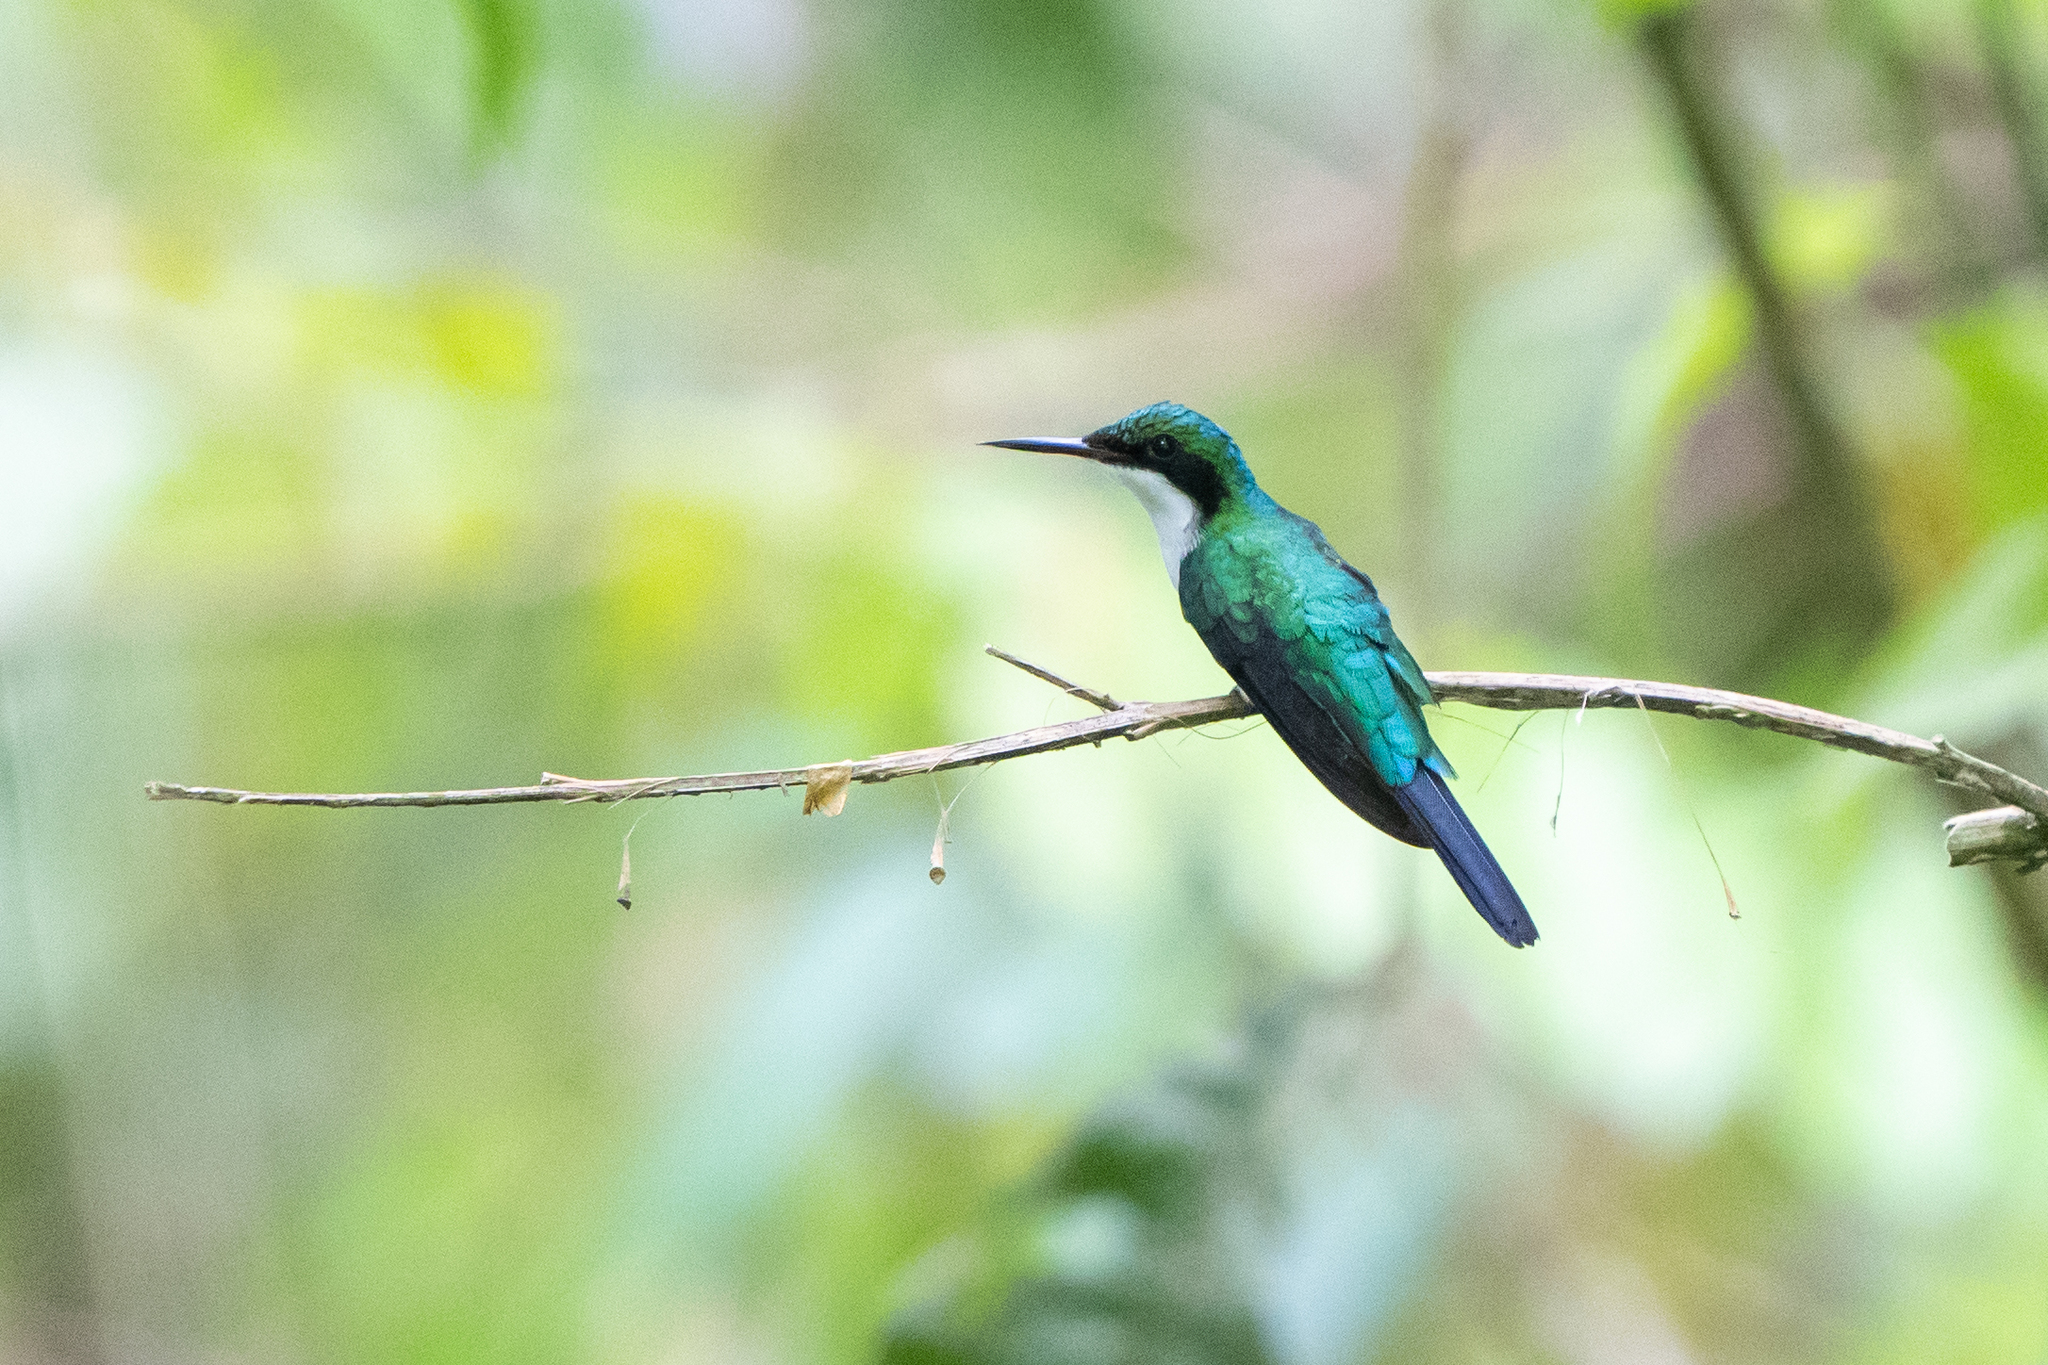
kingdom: Animalia
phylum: Chordata
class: Aves
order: Apodiformes
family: Trochilidae
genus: Heliothryx
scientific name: Heliothryx barroti
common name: Purple-crowned fairy
